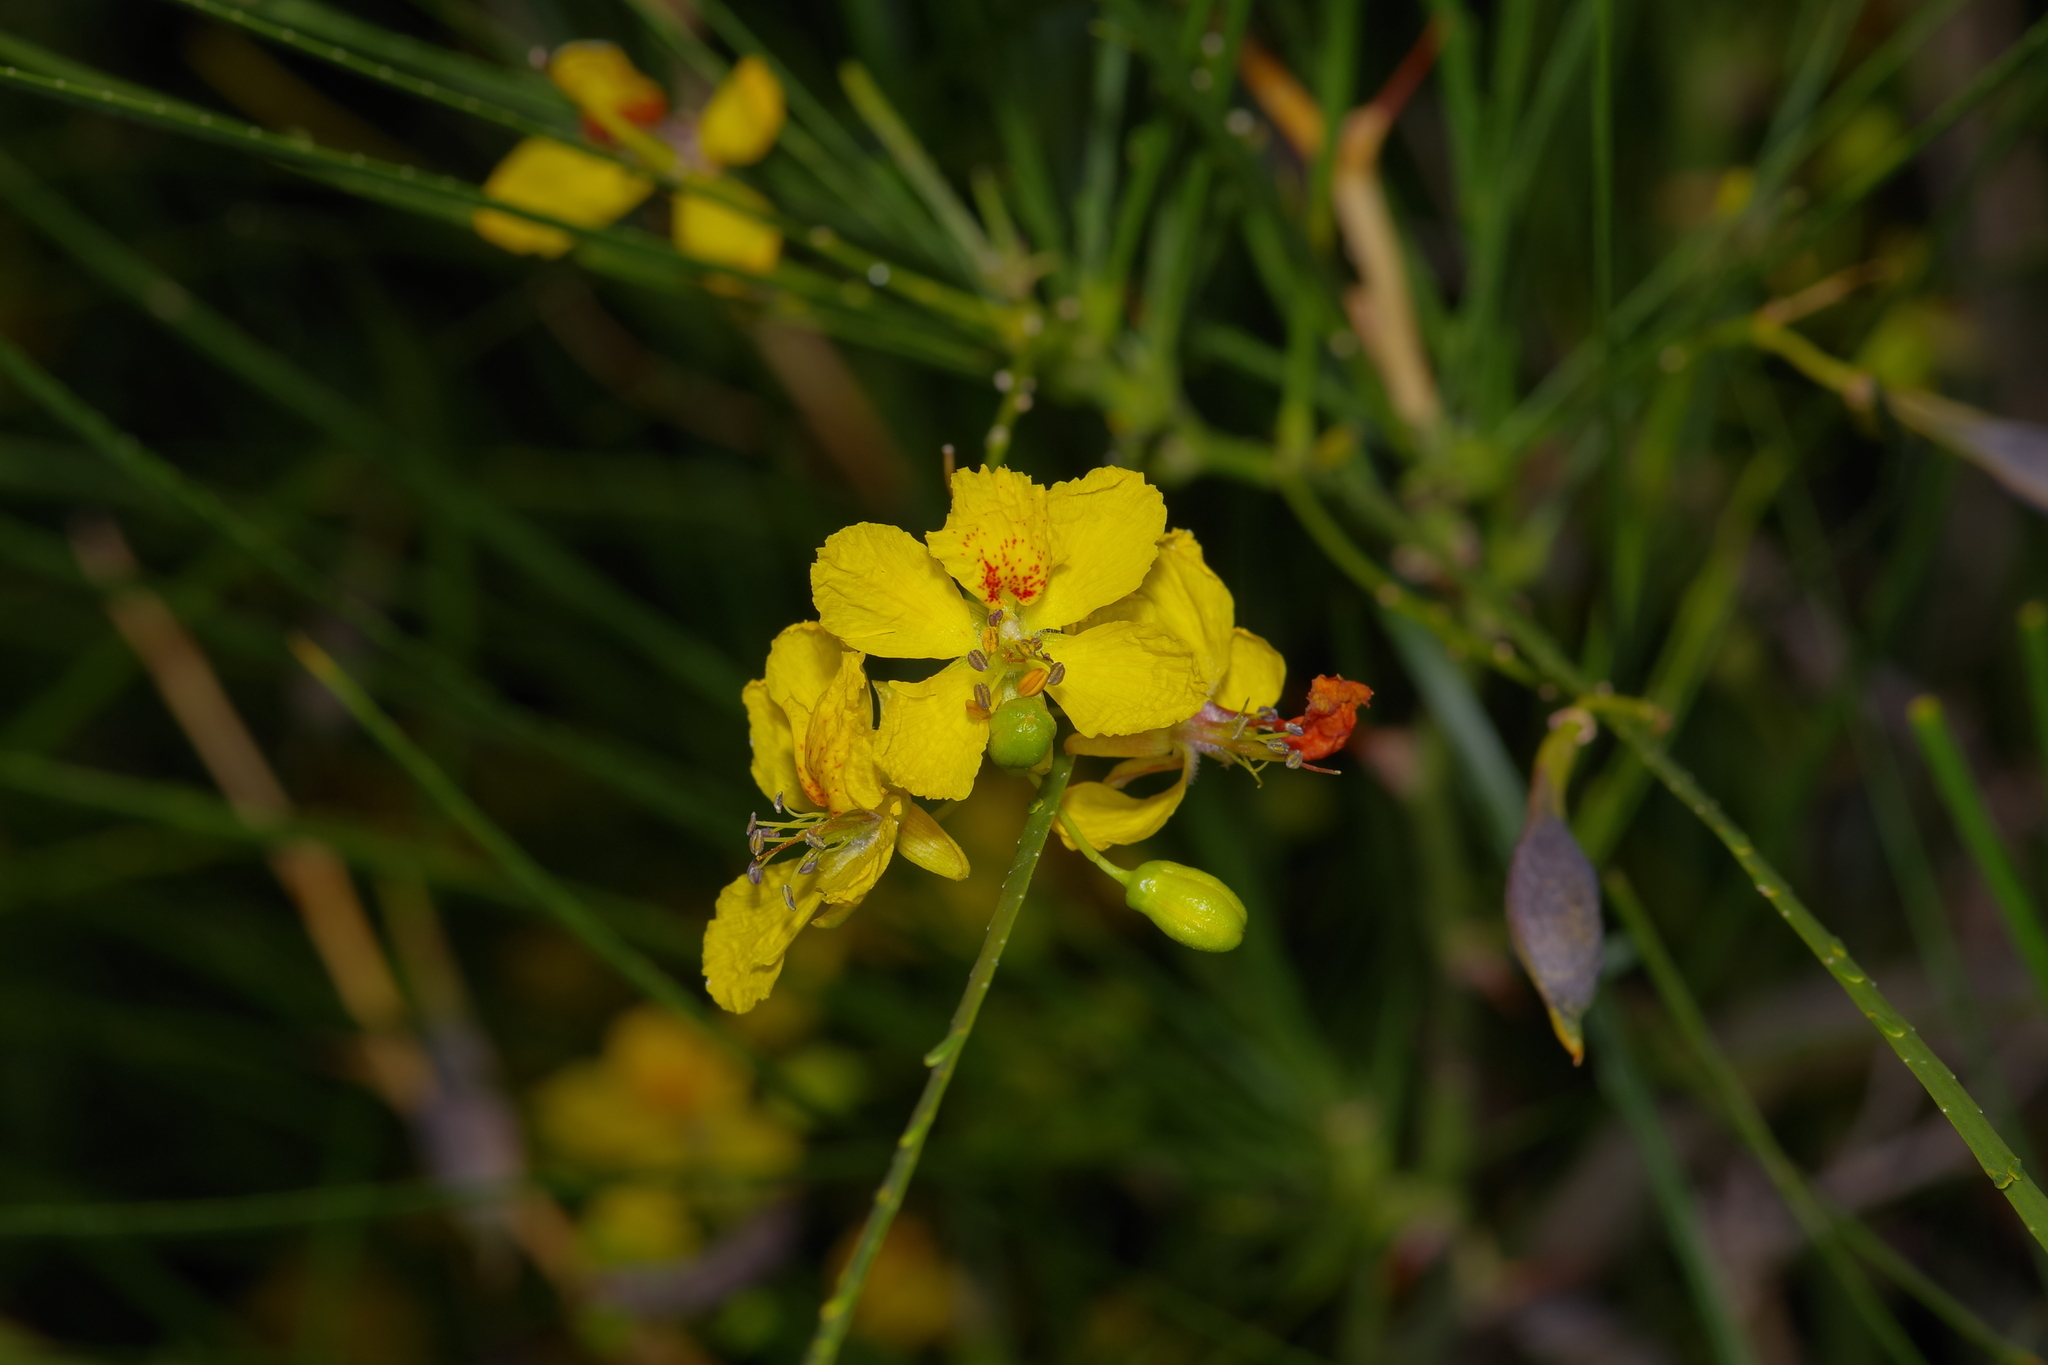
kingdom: Plantae
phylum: Tracheophyta
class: Magnoliopsida
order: Fabales
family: Fabaceae
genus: Parkinsonia
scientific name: Parkinsonia aculeata
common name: Jerusalem thorn
